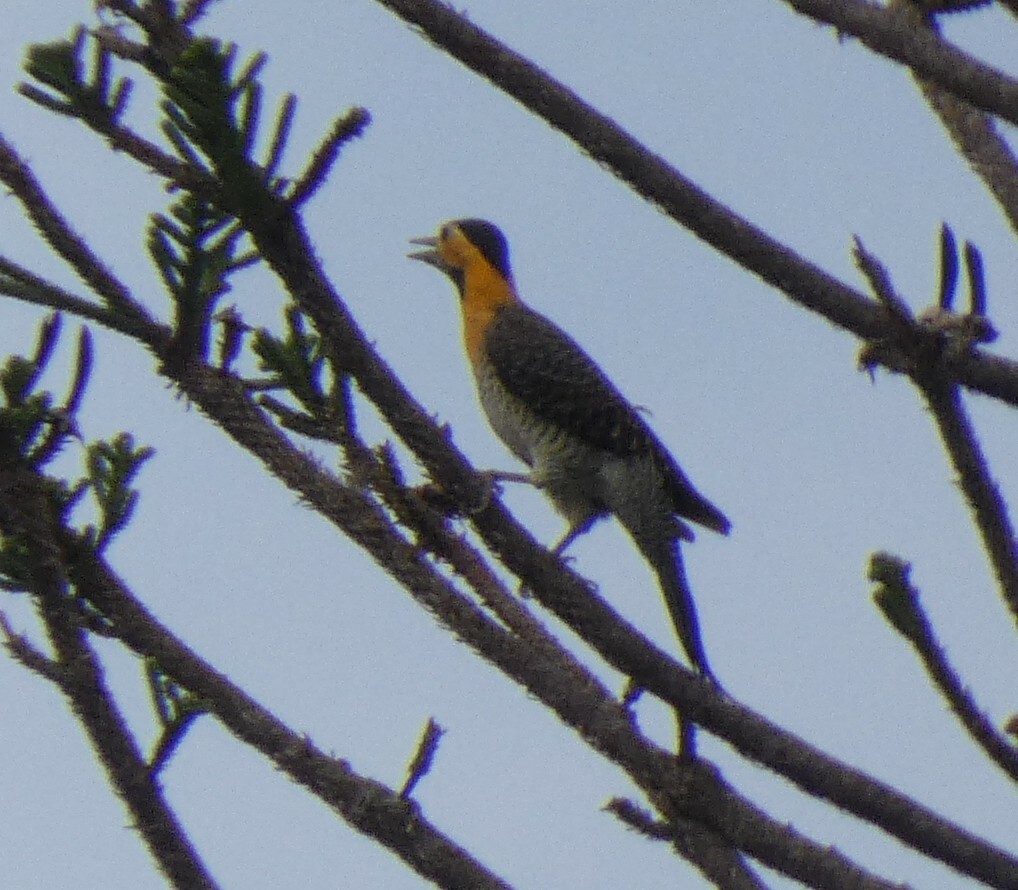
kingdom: Animalia
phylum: Chordata
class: Aves
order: Piciformes
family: Picidae
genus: Colaptes
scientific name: Colaptes campestris
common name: Campo flicker
